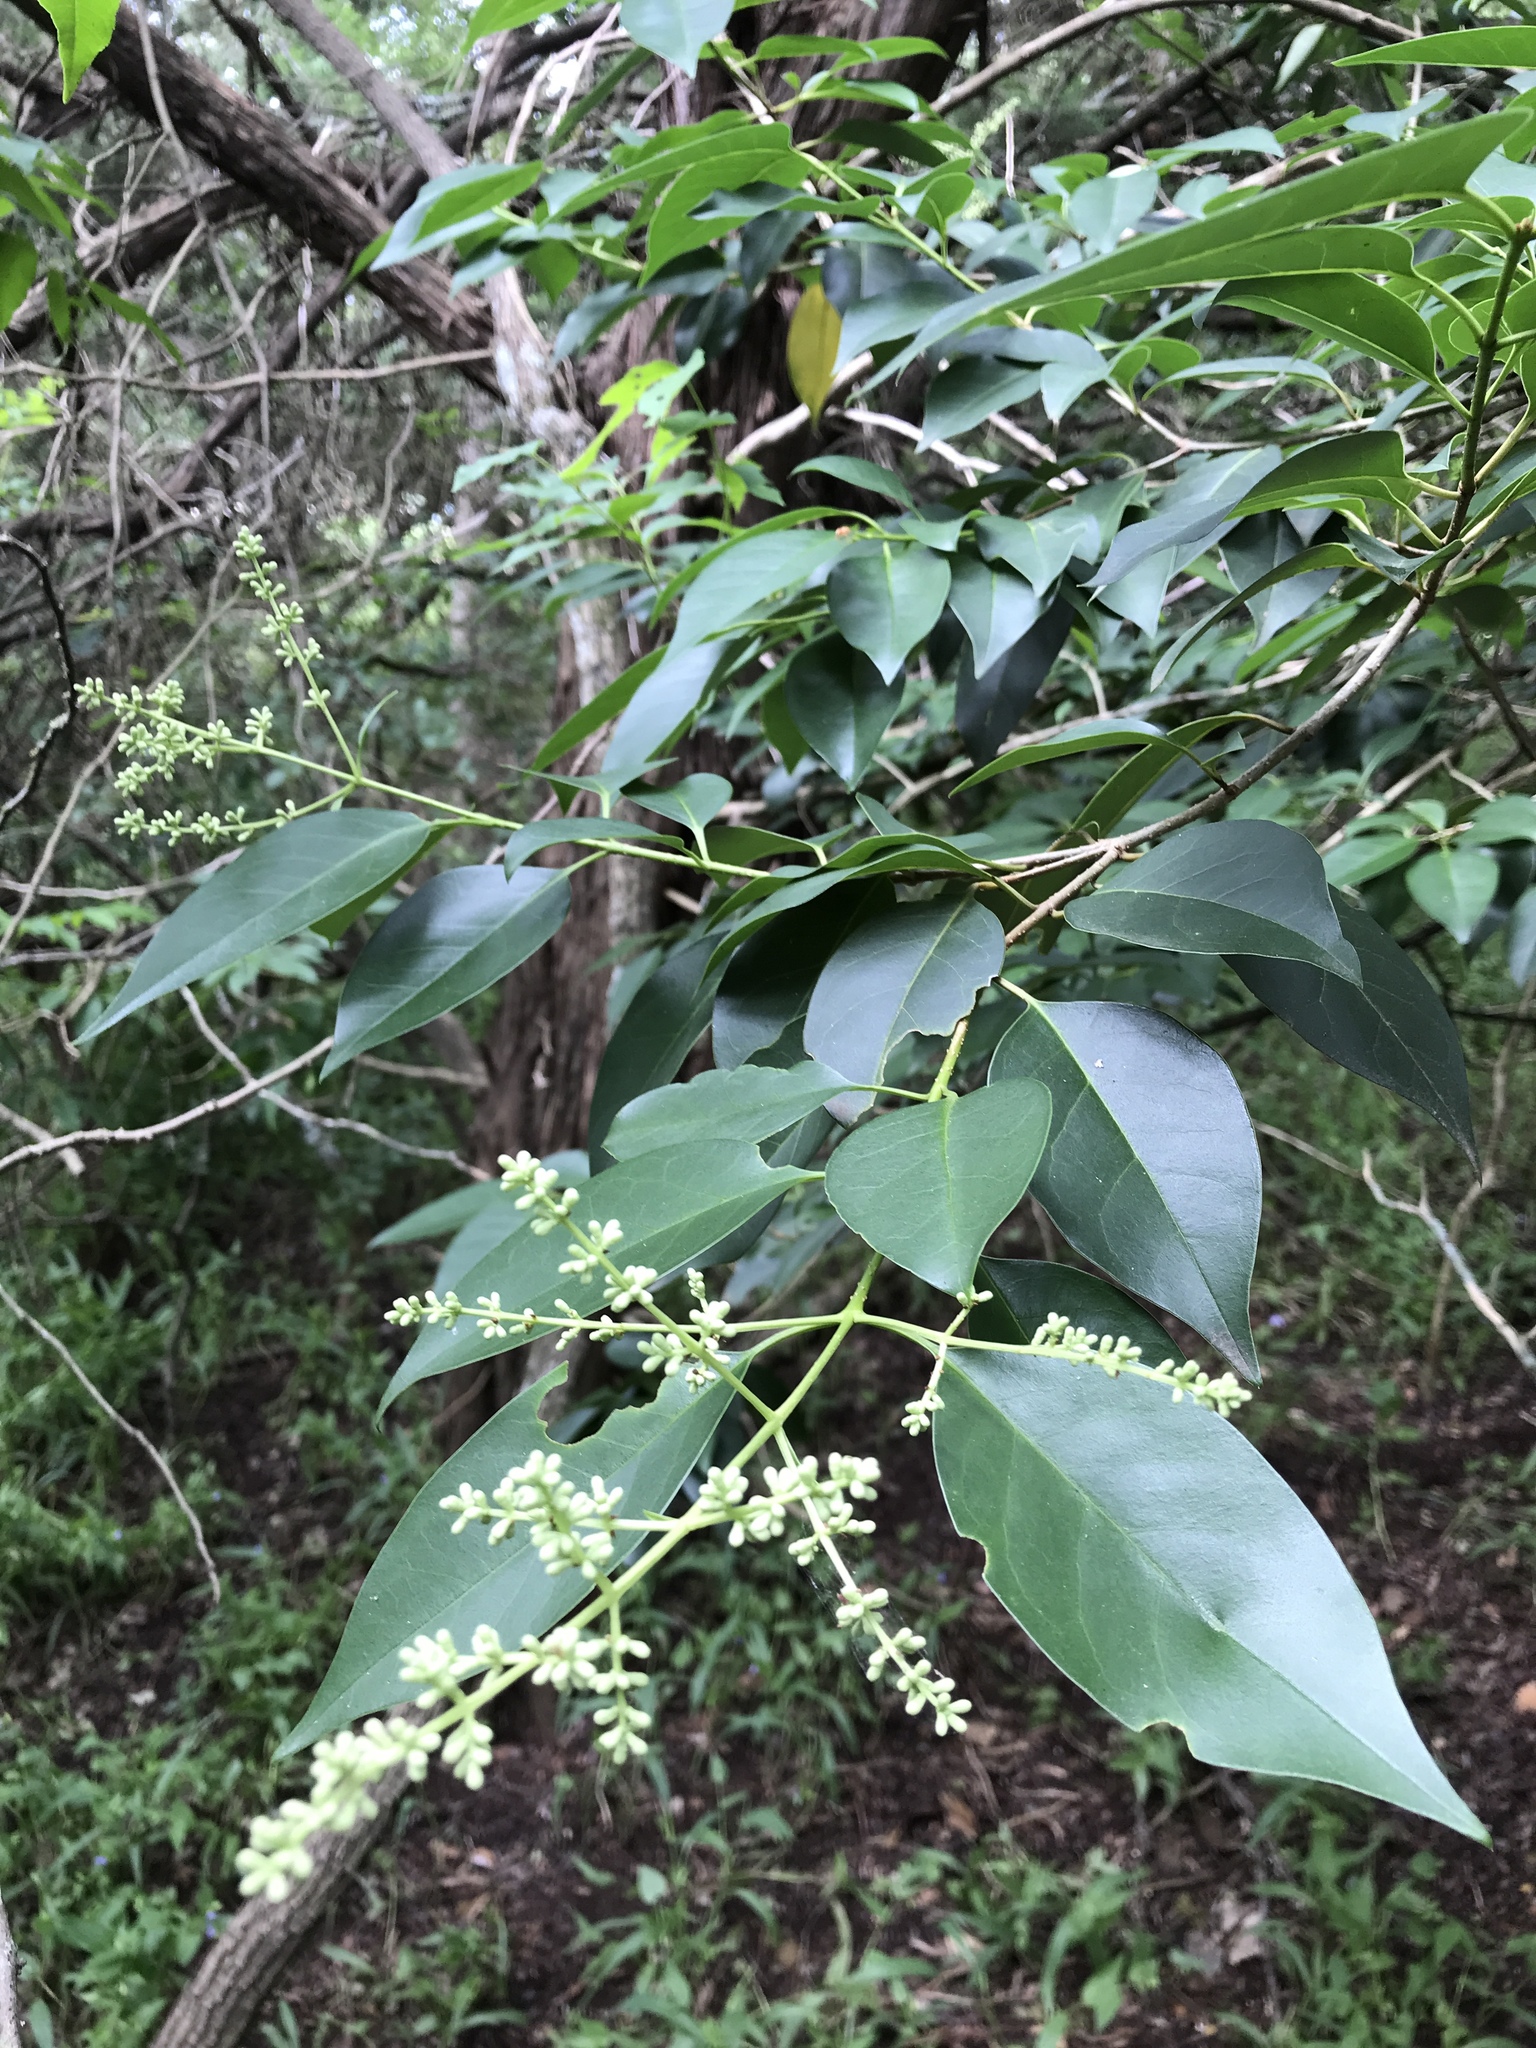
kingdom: Plantae
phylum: Tracheophyta
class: Magnoliopsida
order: Lamiales
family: Oleaceae
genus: Ligustrum
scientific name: Ligustrum lucidum
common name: Glossy privet
